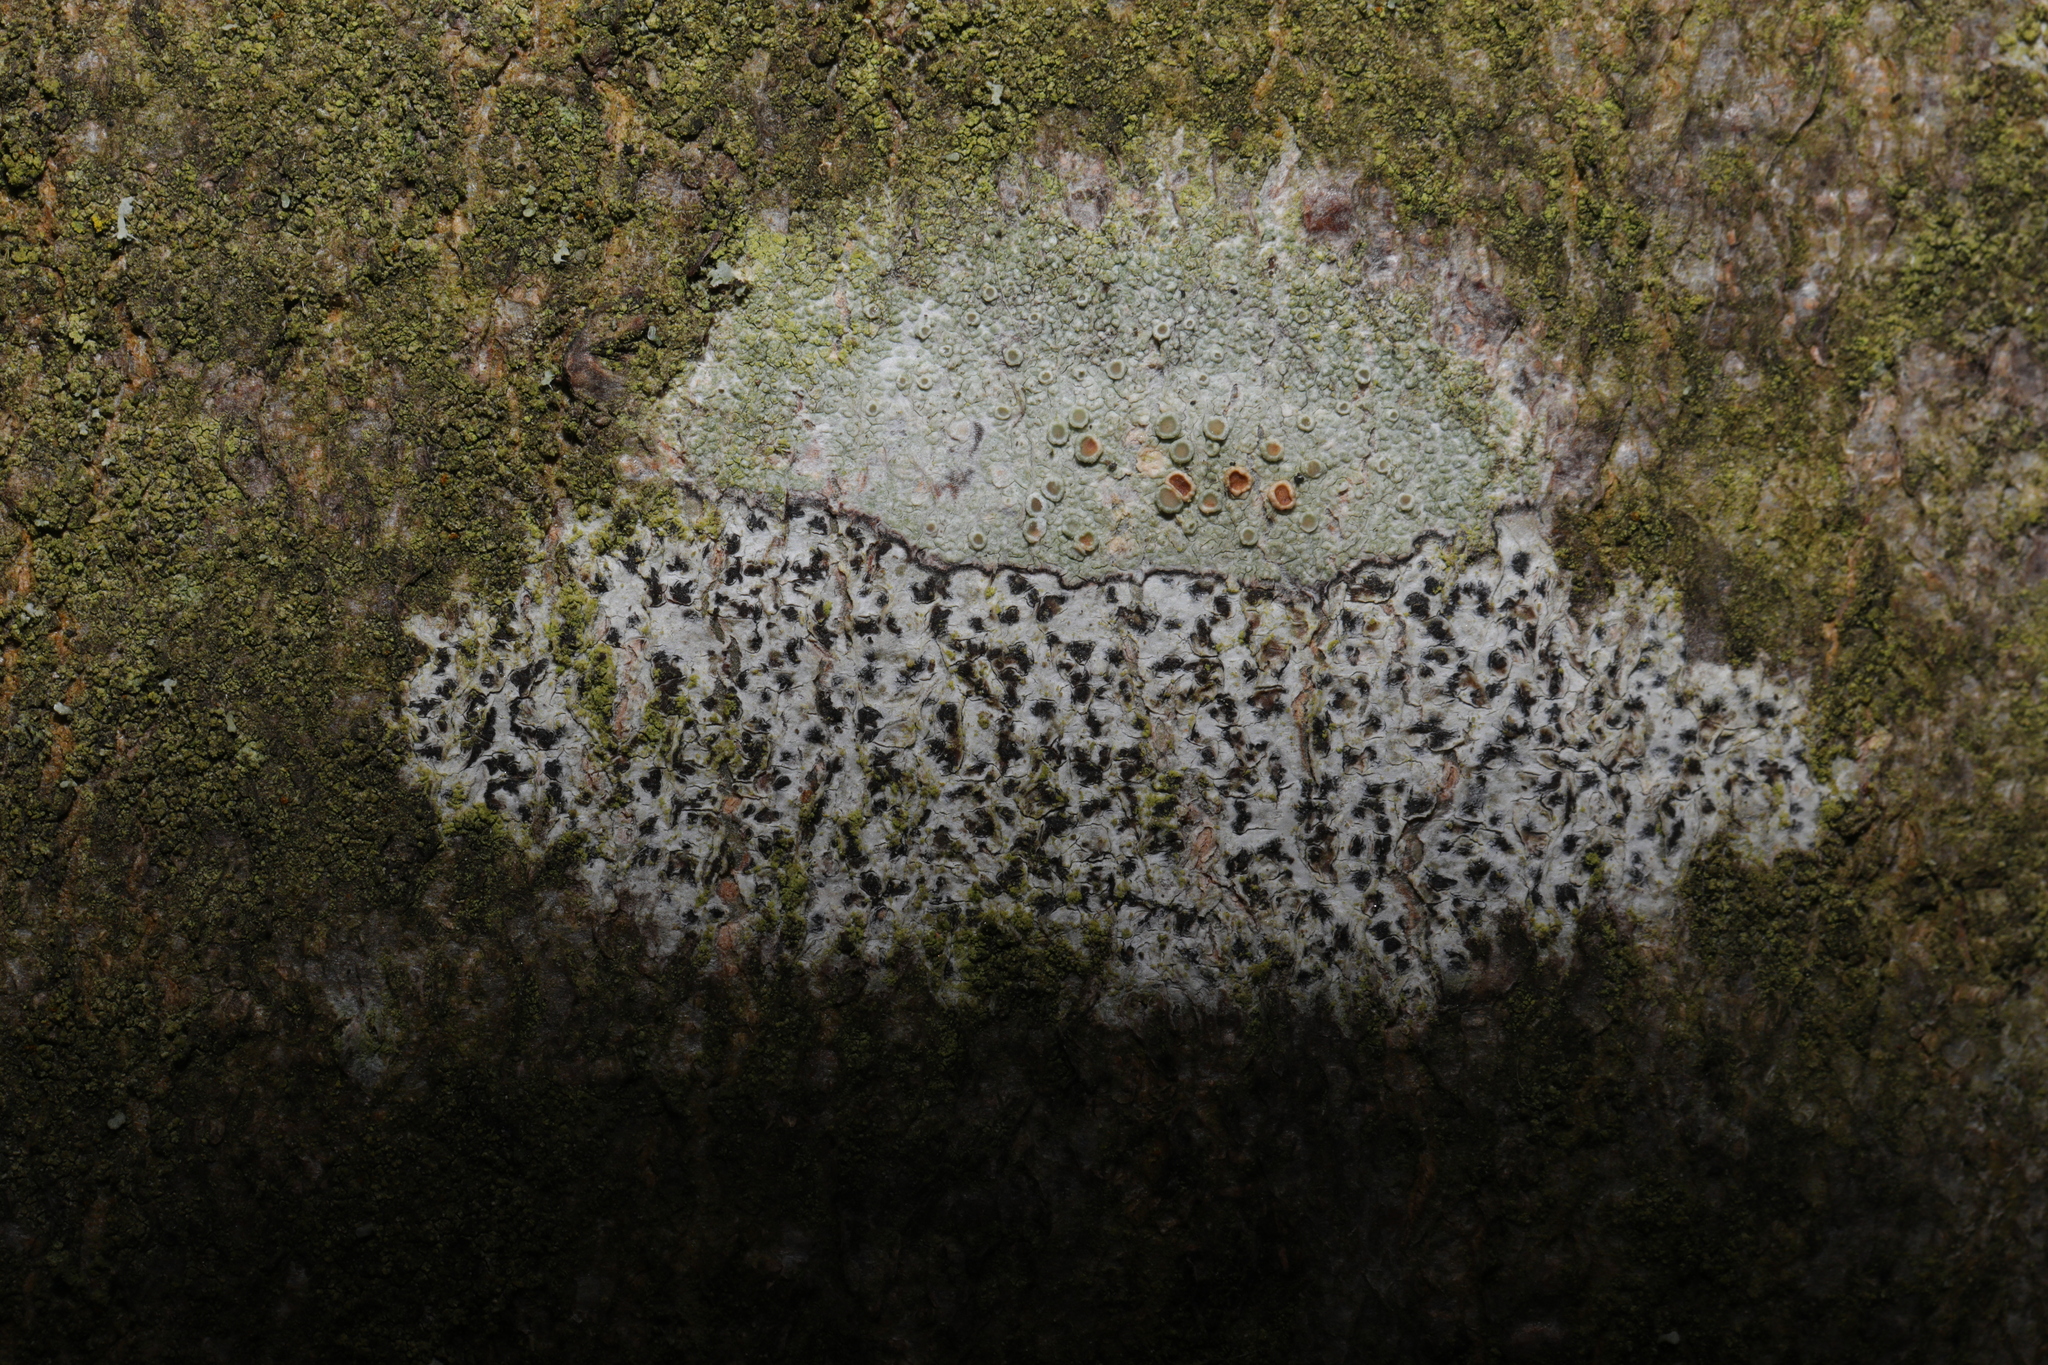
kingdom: Fungi
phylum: Ascomycota
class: Arthoniomycetes
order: Arthoniales
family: Arthoniaceae
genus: Arthonia
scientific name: Arthonia radiata
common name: Asterisk lichen
